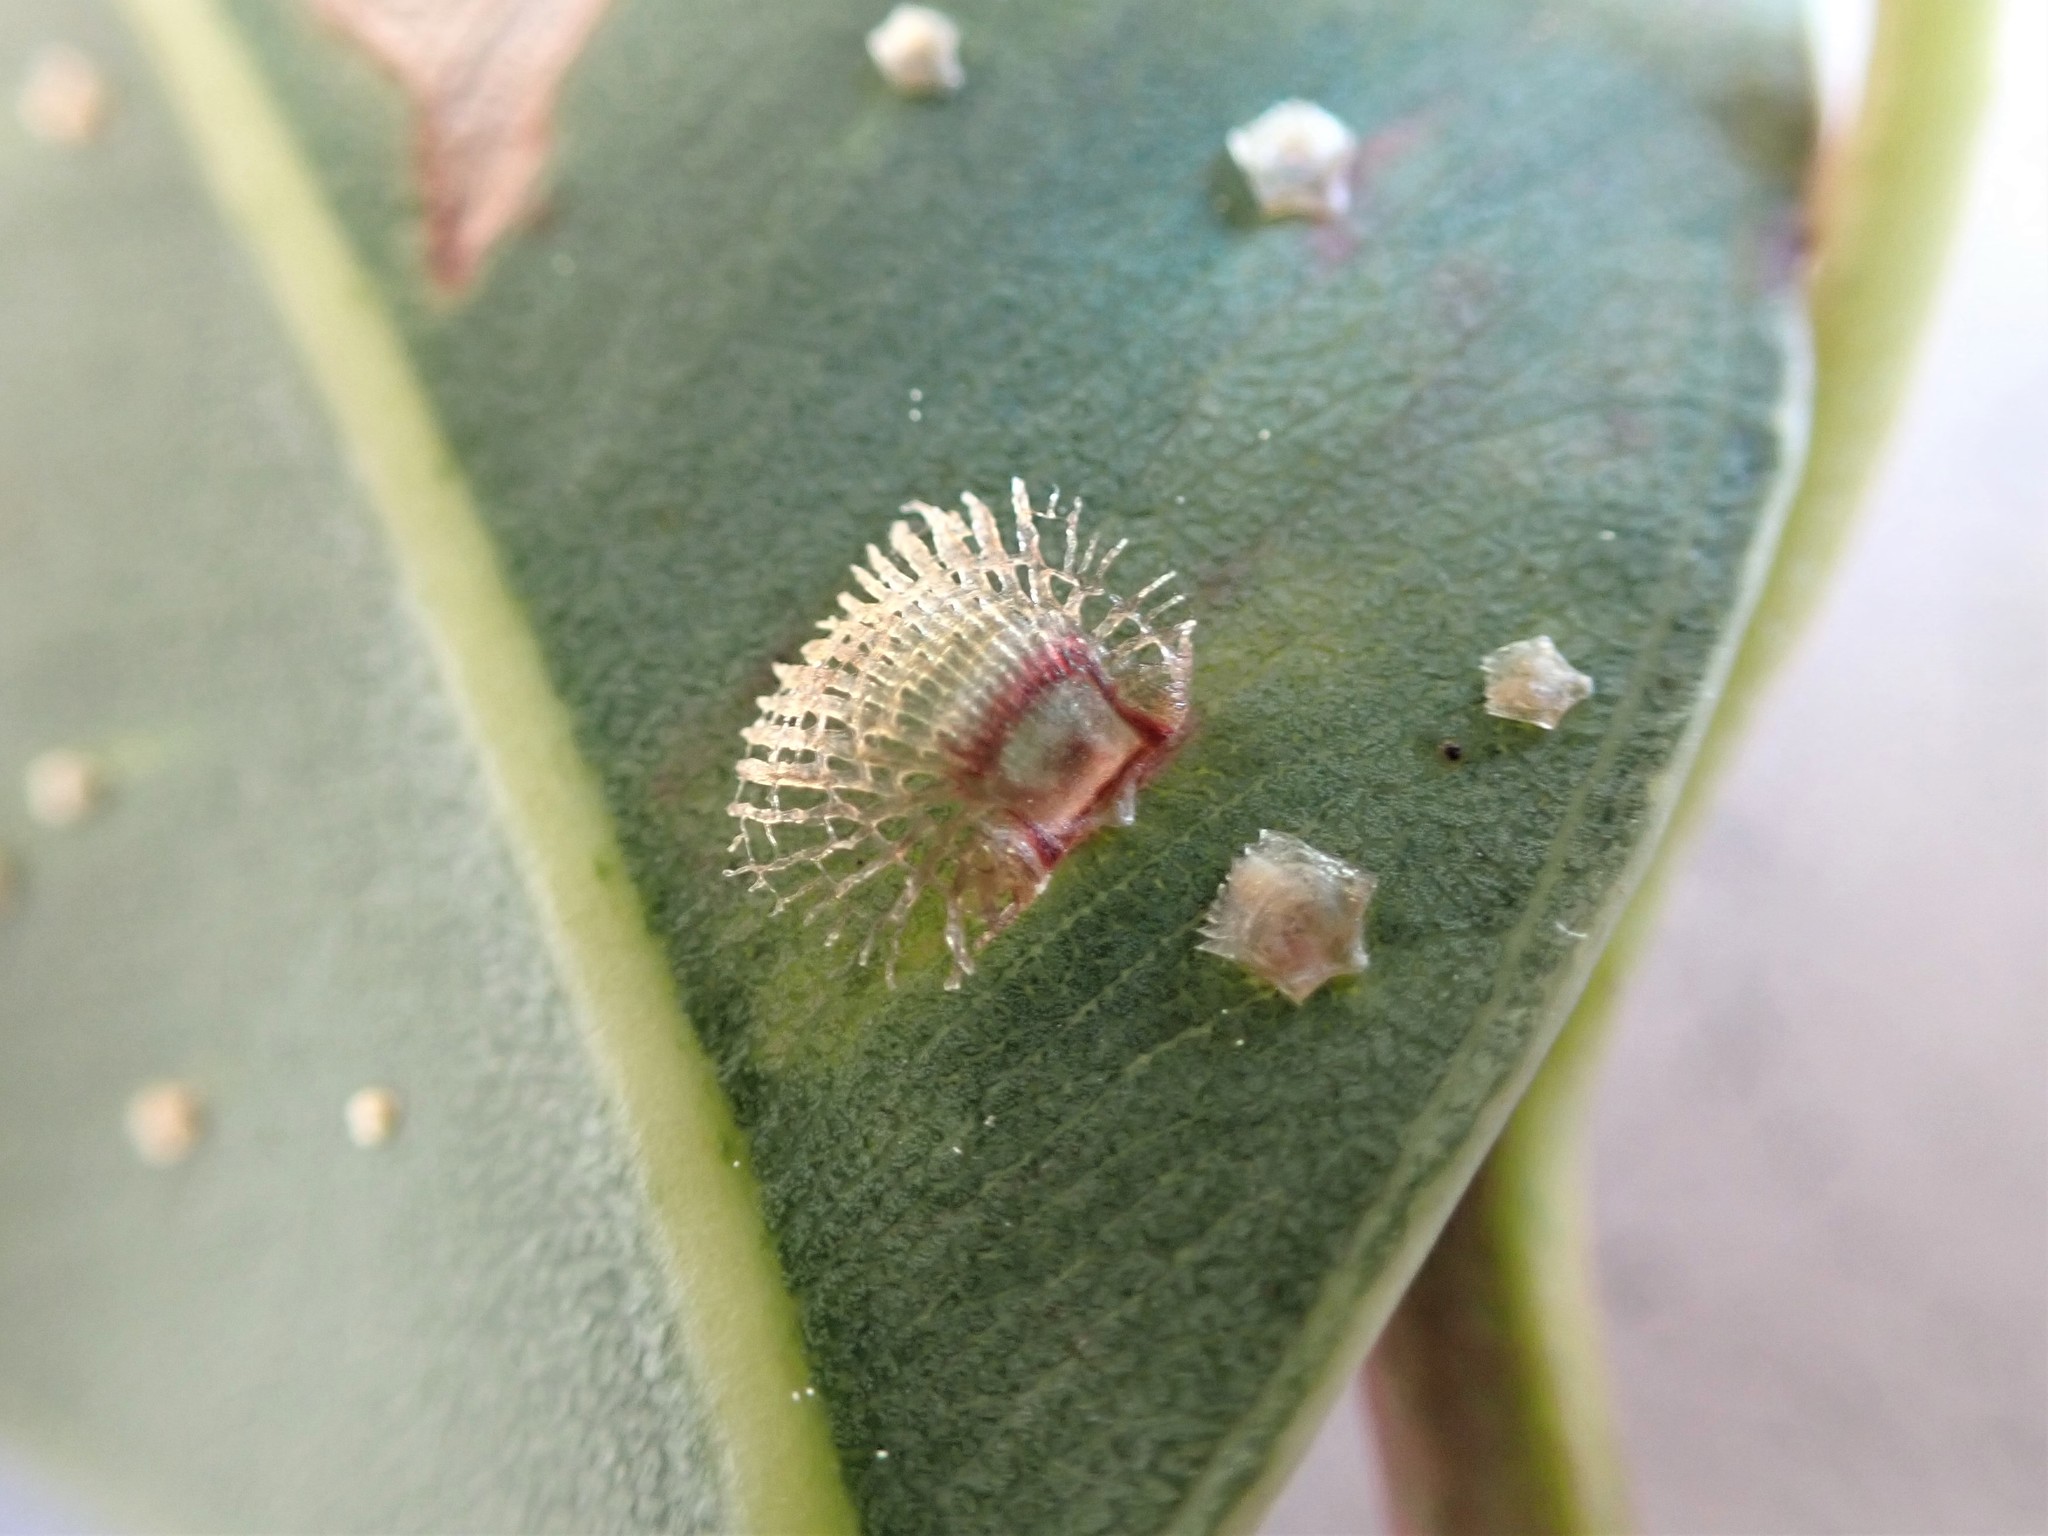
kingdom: Animalia
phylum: Arthropoda
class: Insecta
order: Hemiptera
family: Aphalaridae
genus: Cardiaspina
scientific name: Cardiaspina fiscella
